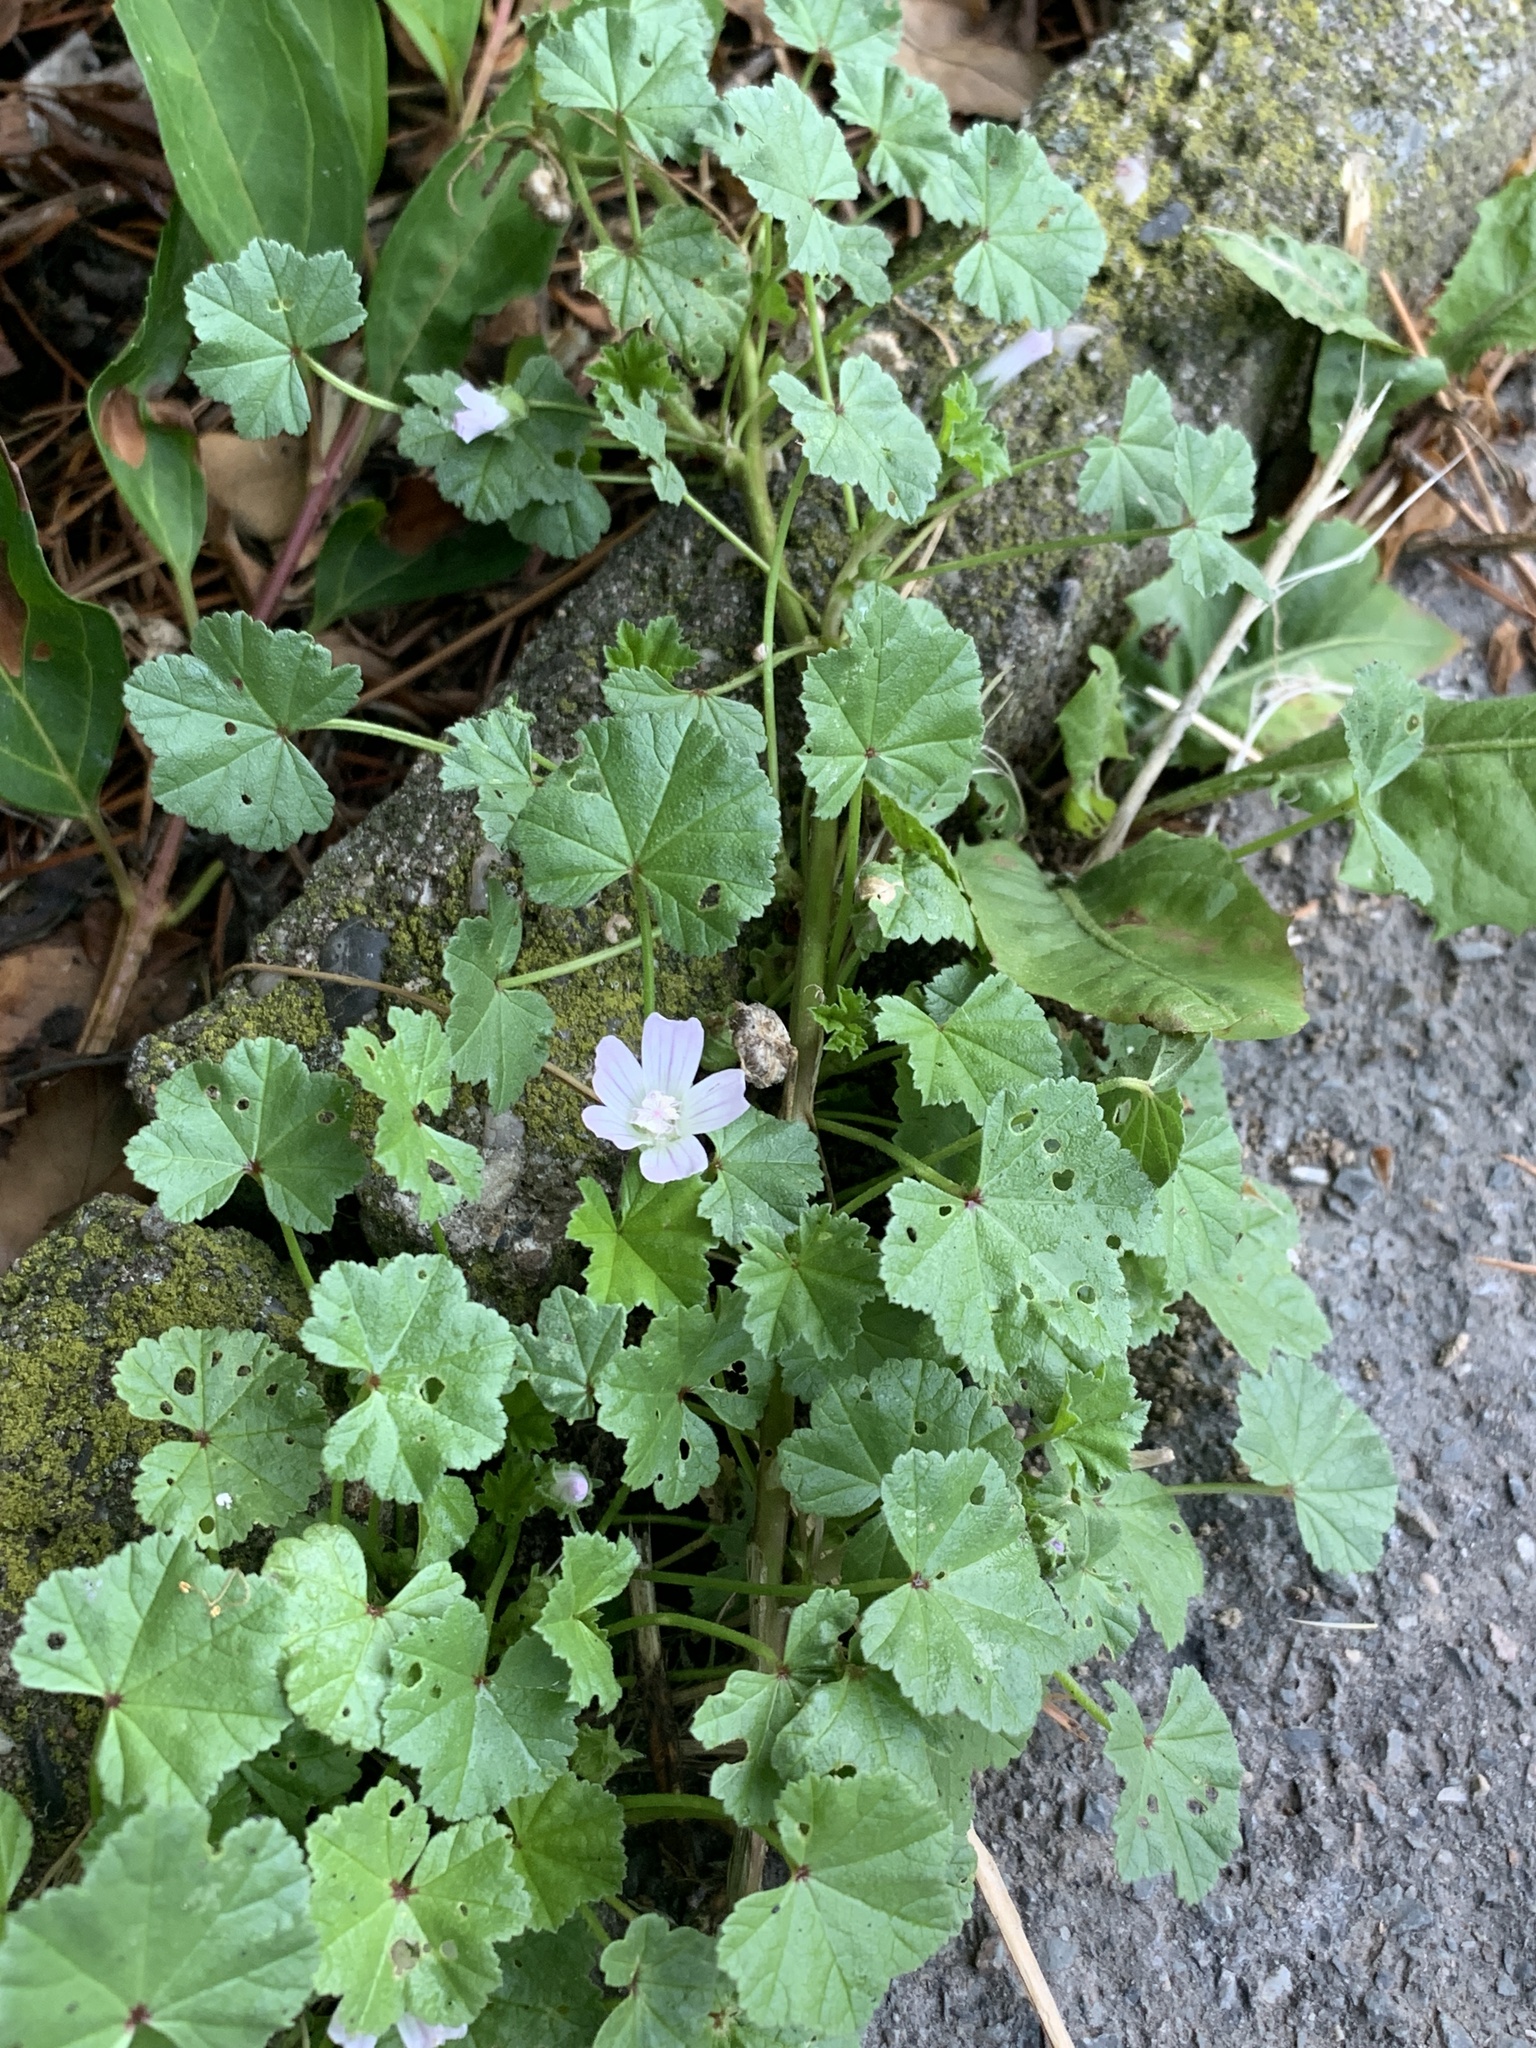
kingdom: Plantae
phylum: Tracheophyta
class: Magnoliopsida
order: Malvales
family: Malvaceae
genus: Malva
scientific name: Malva neglecta
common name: Common mallow
